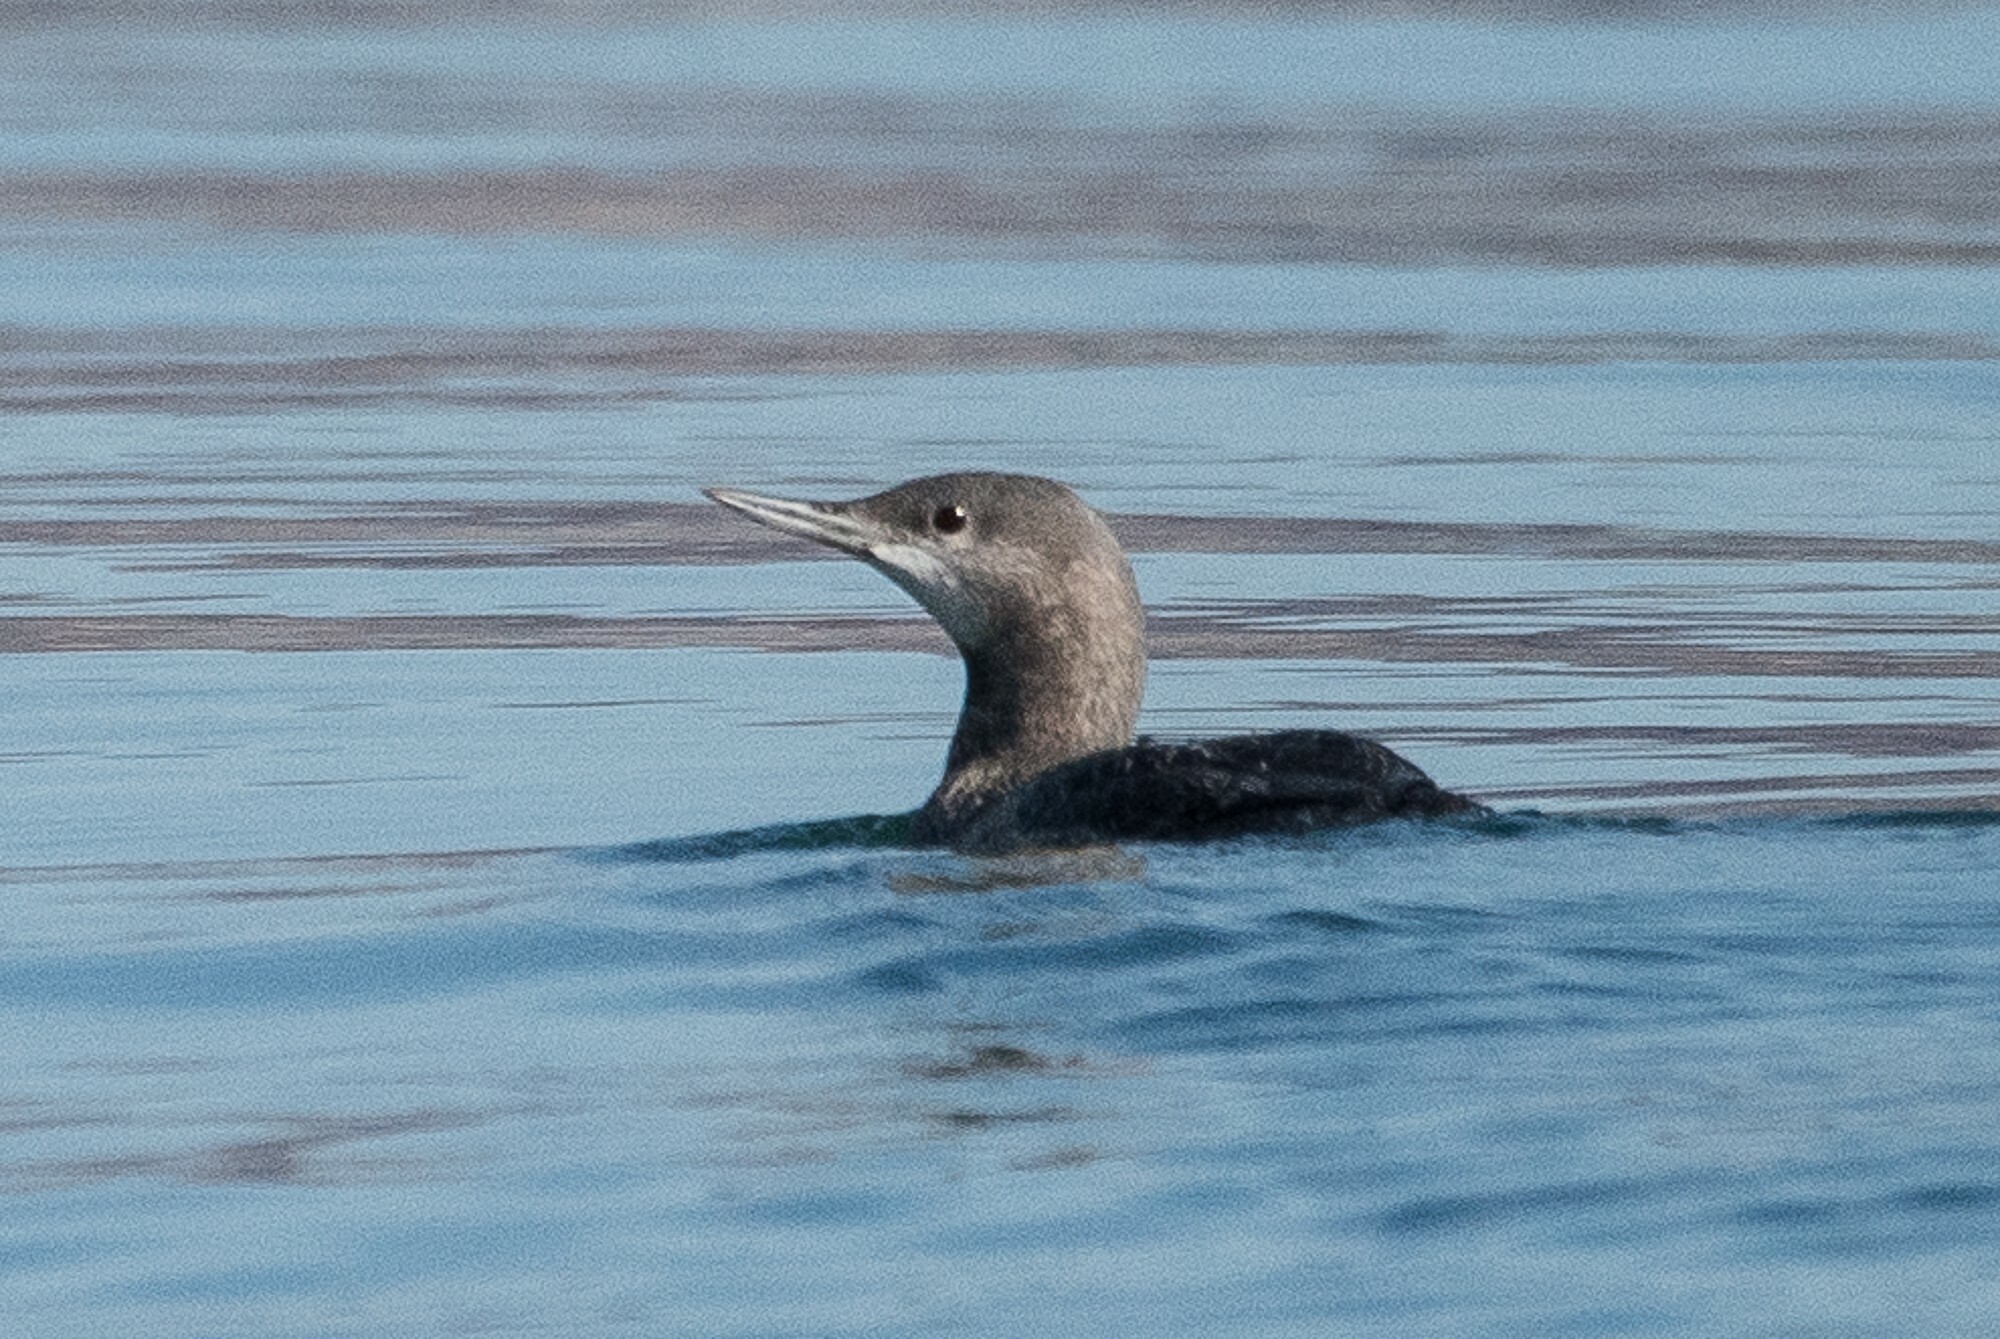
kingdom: Animalia
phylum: Chordata
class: Aves
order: Gaviiformes
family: Gaviidae
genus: Gavia
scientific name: Gavia stellata
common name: Red-throated loon
